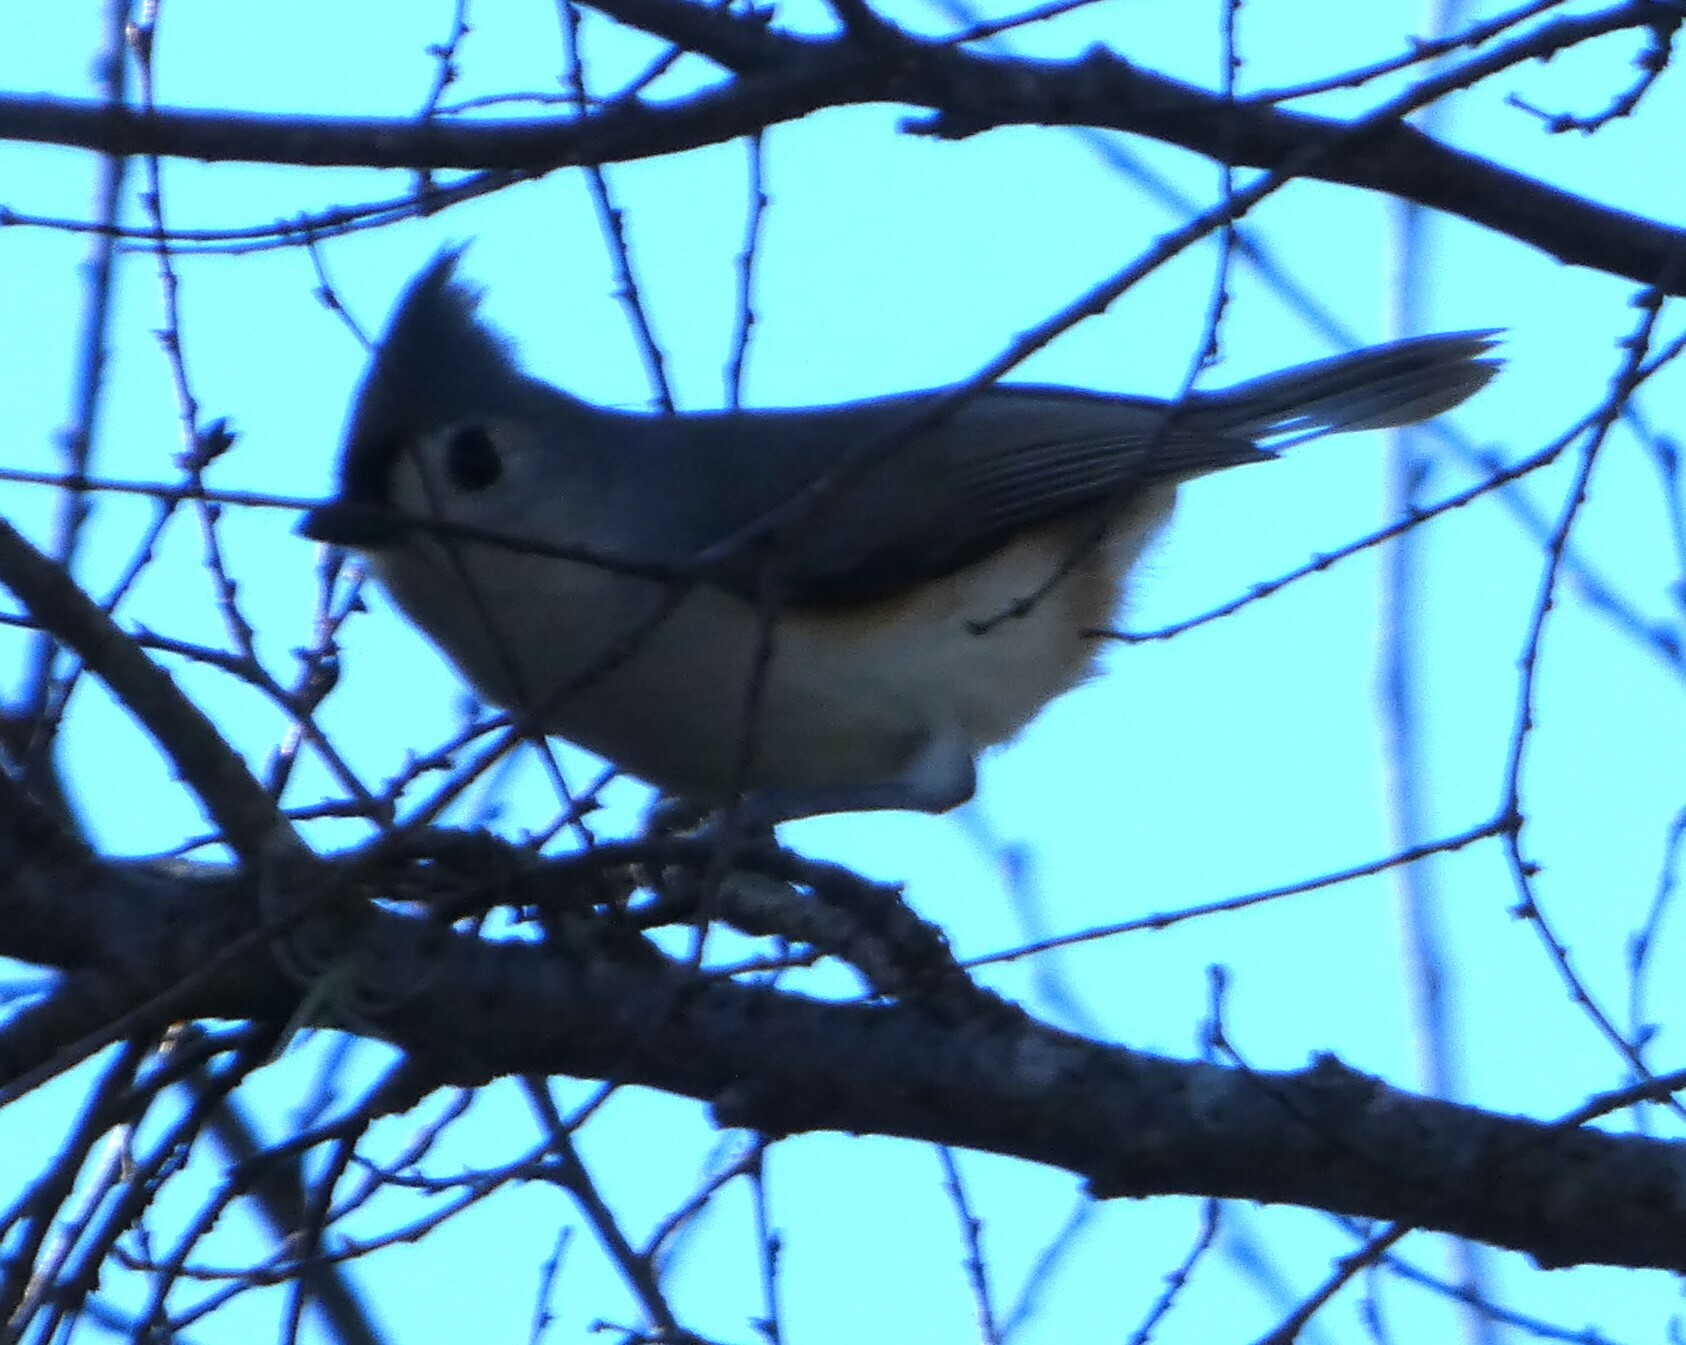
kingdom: Animalia
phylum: Chordata
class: Aves
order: Passeriformes
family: Paridae
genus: Baeolophus
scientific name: Baeolophus bicolor
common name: Tufted titmouse
